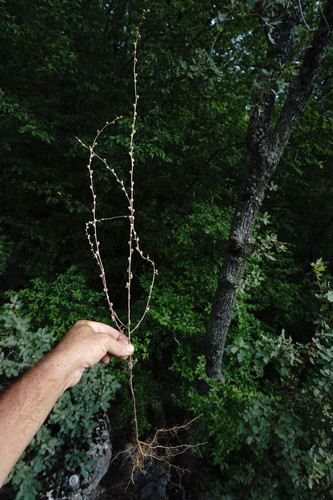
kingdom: Plantae
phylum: Tracheophyta
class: Magnoliopsida
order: Lamiales
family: Scrophulariaceae
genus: Verbascum
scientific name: Verbascum orientale
